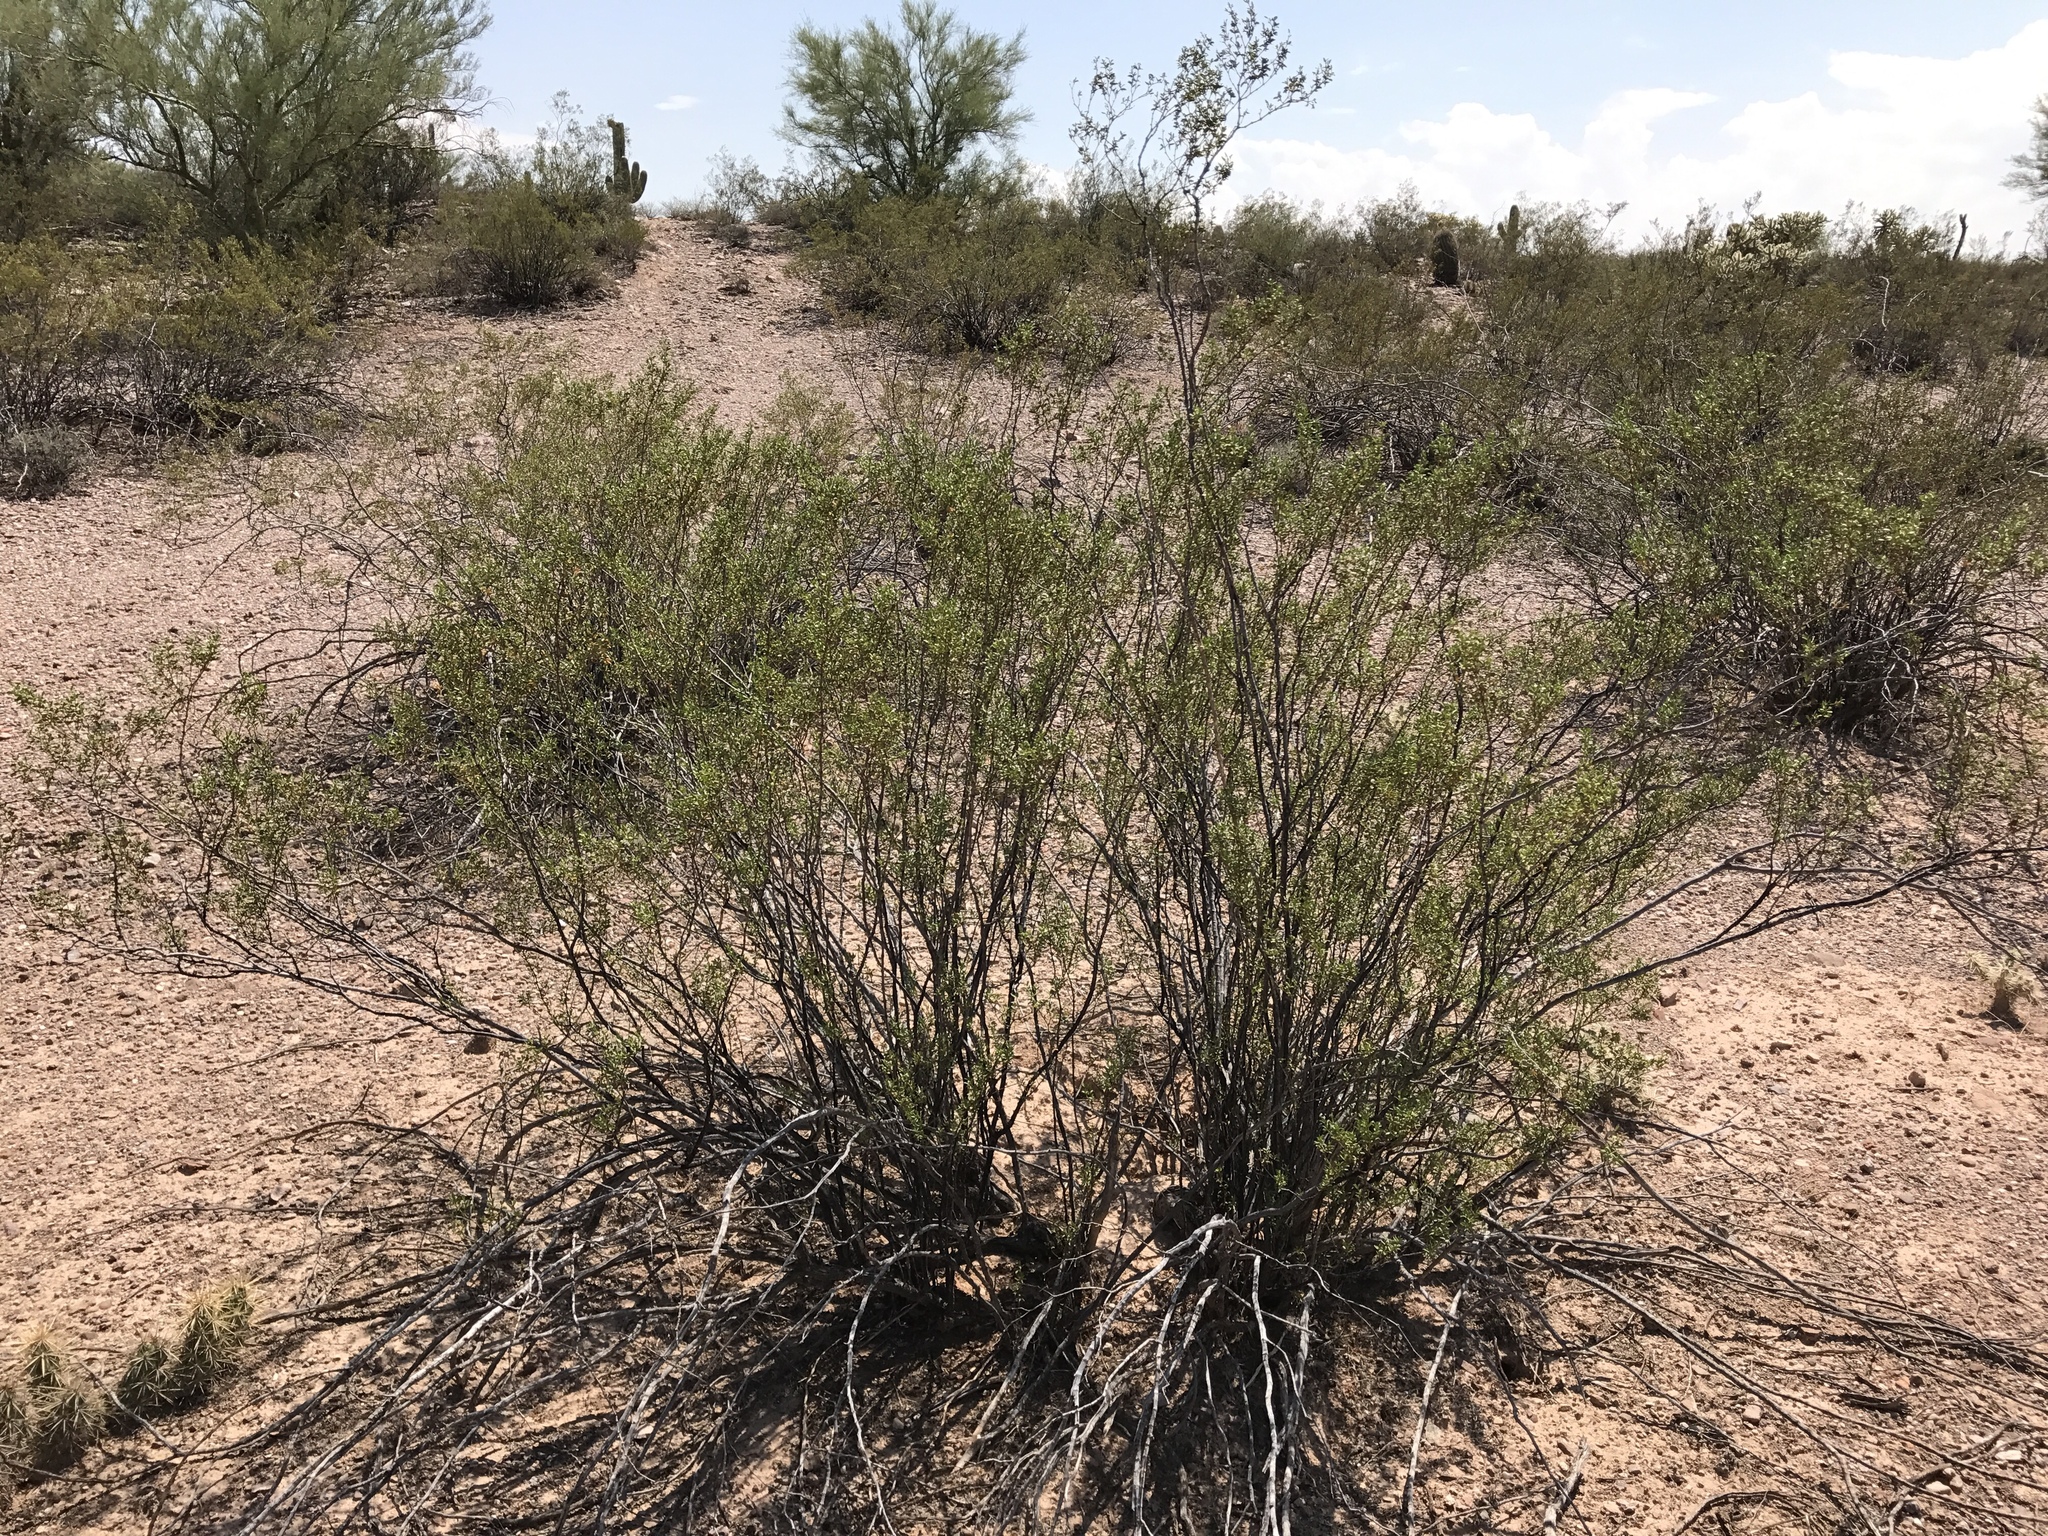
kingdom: Plantae
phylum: Tracheophyta
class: Magnoliopsida
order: Zygophyllales
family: Zygophyllaceae
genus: Larrea
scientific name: Larrea tridentata
